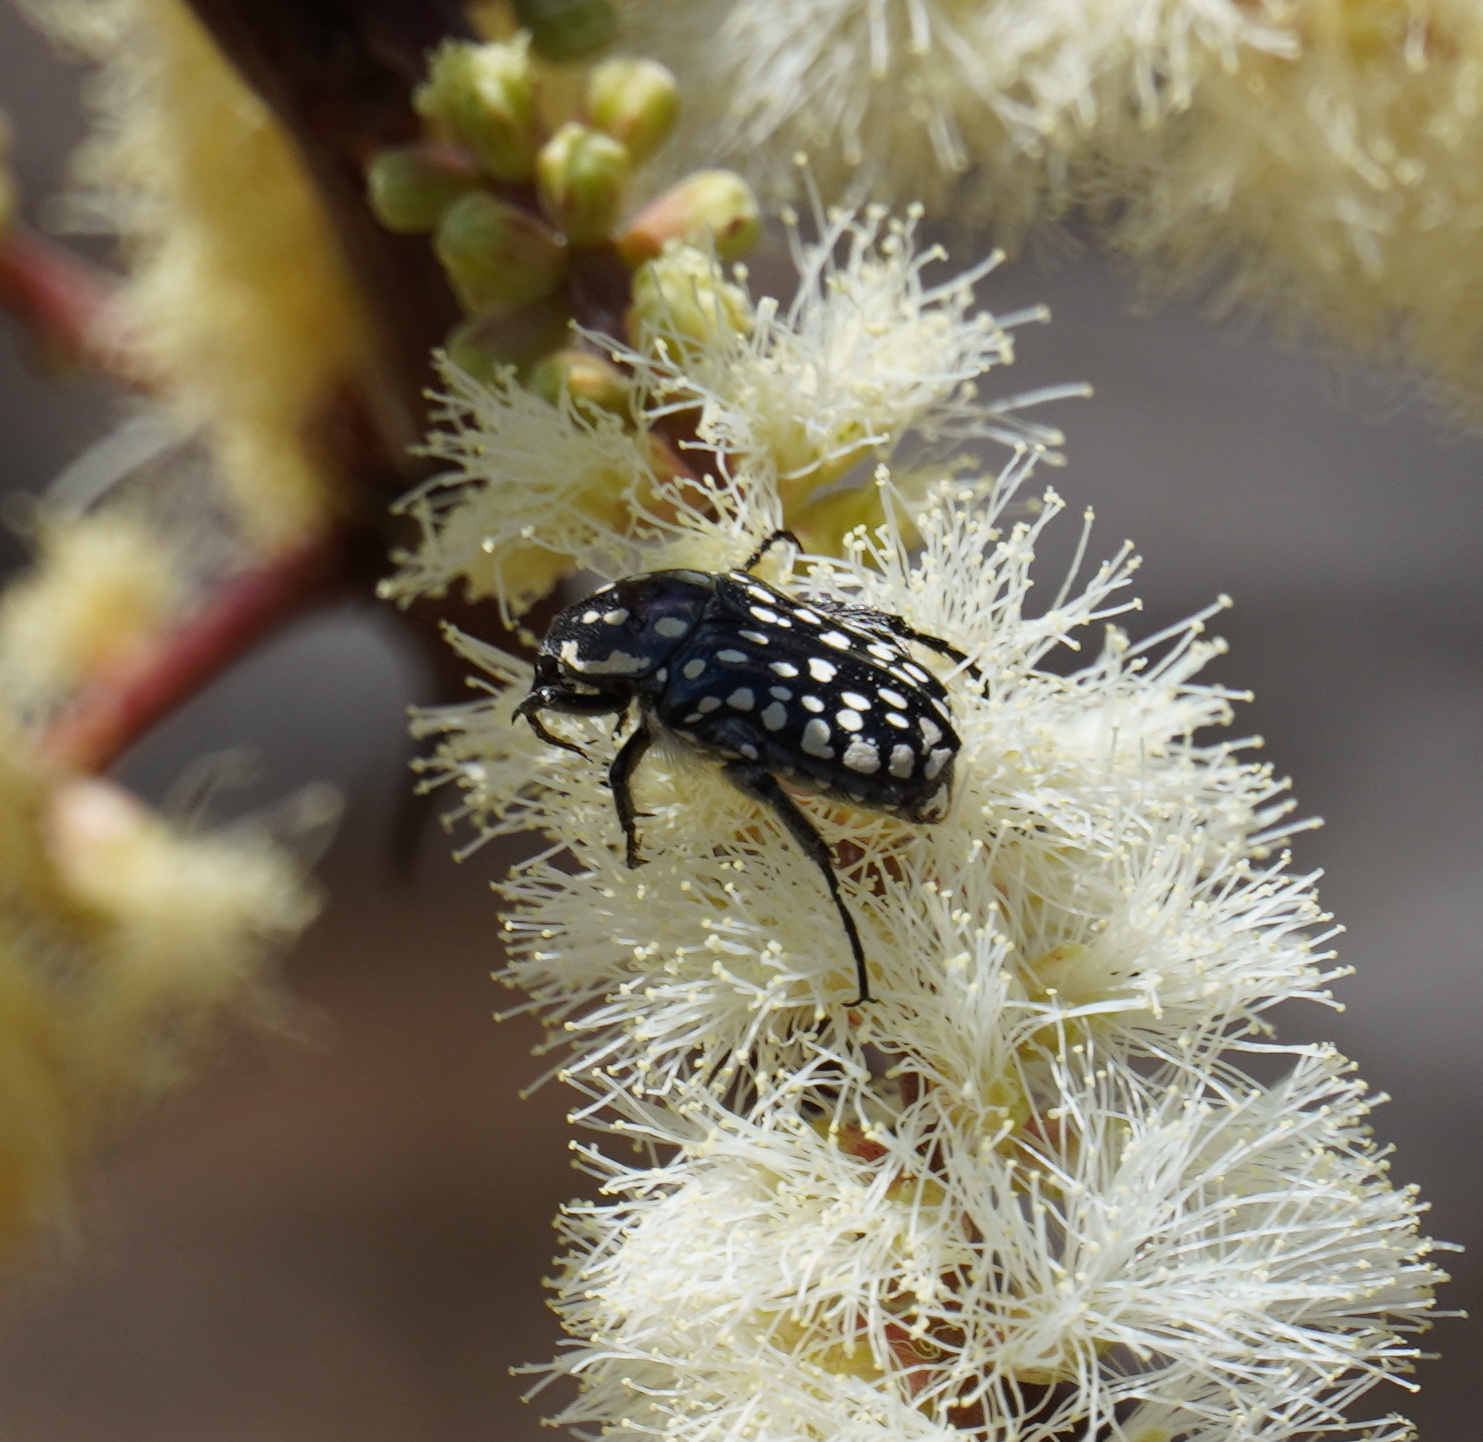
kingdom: Animalia
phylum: Arthropoda
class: Insecta
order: Coleoptera
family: Scarabaeidae
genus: Cyrtothyrea
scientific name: Cyrtothyrea testaceoguttata
